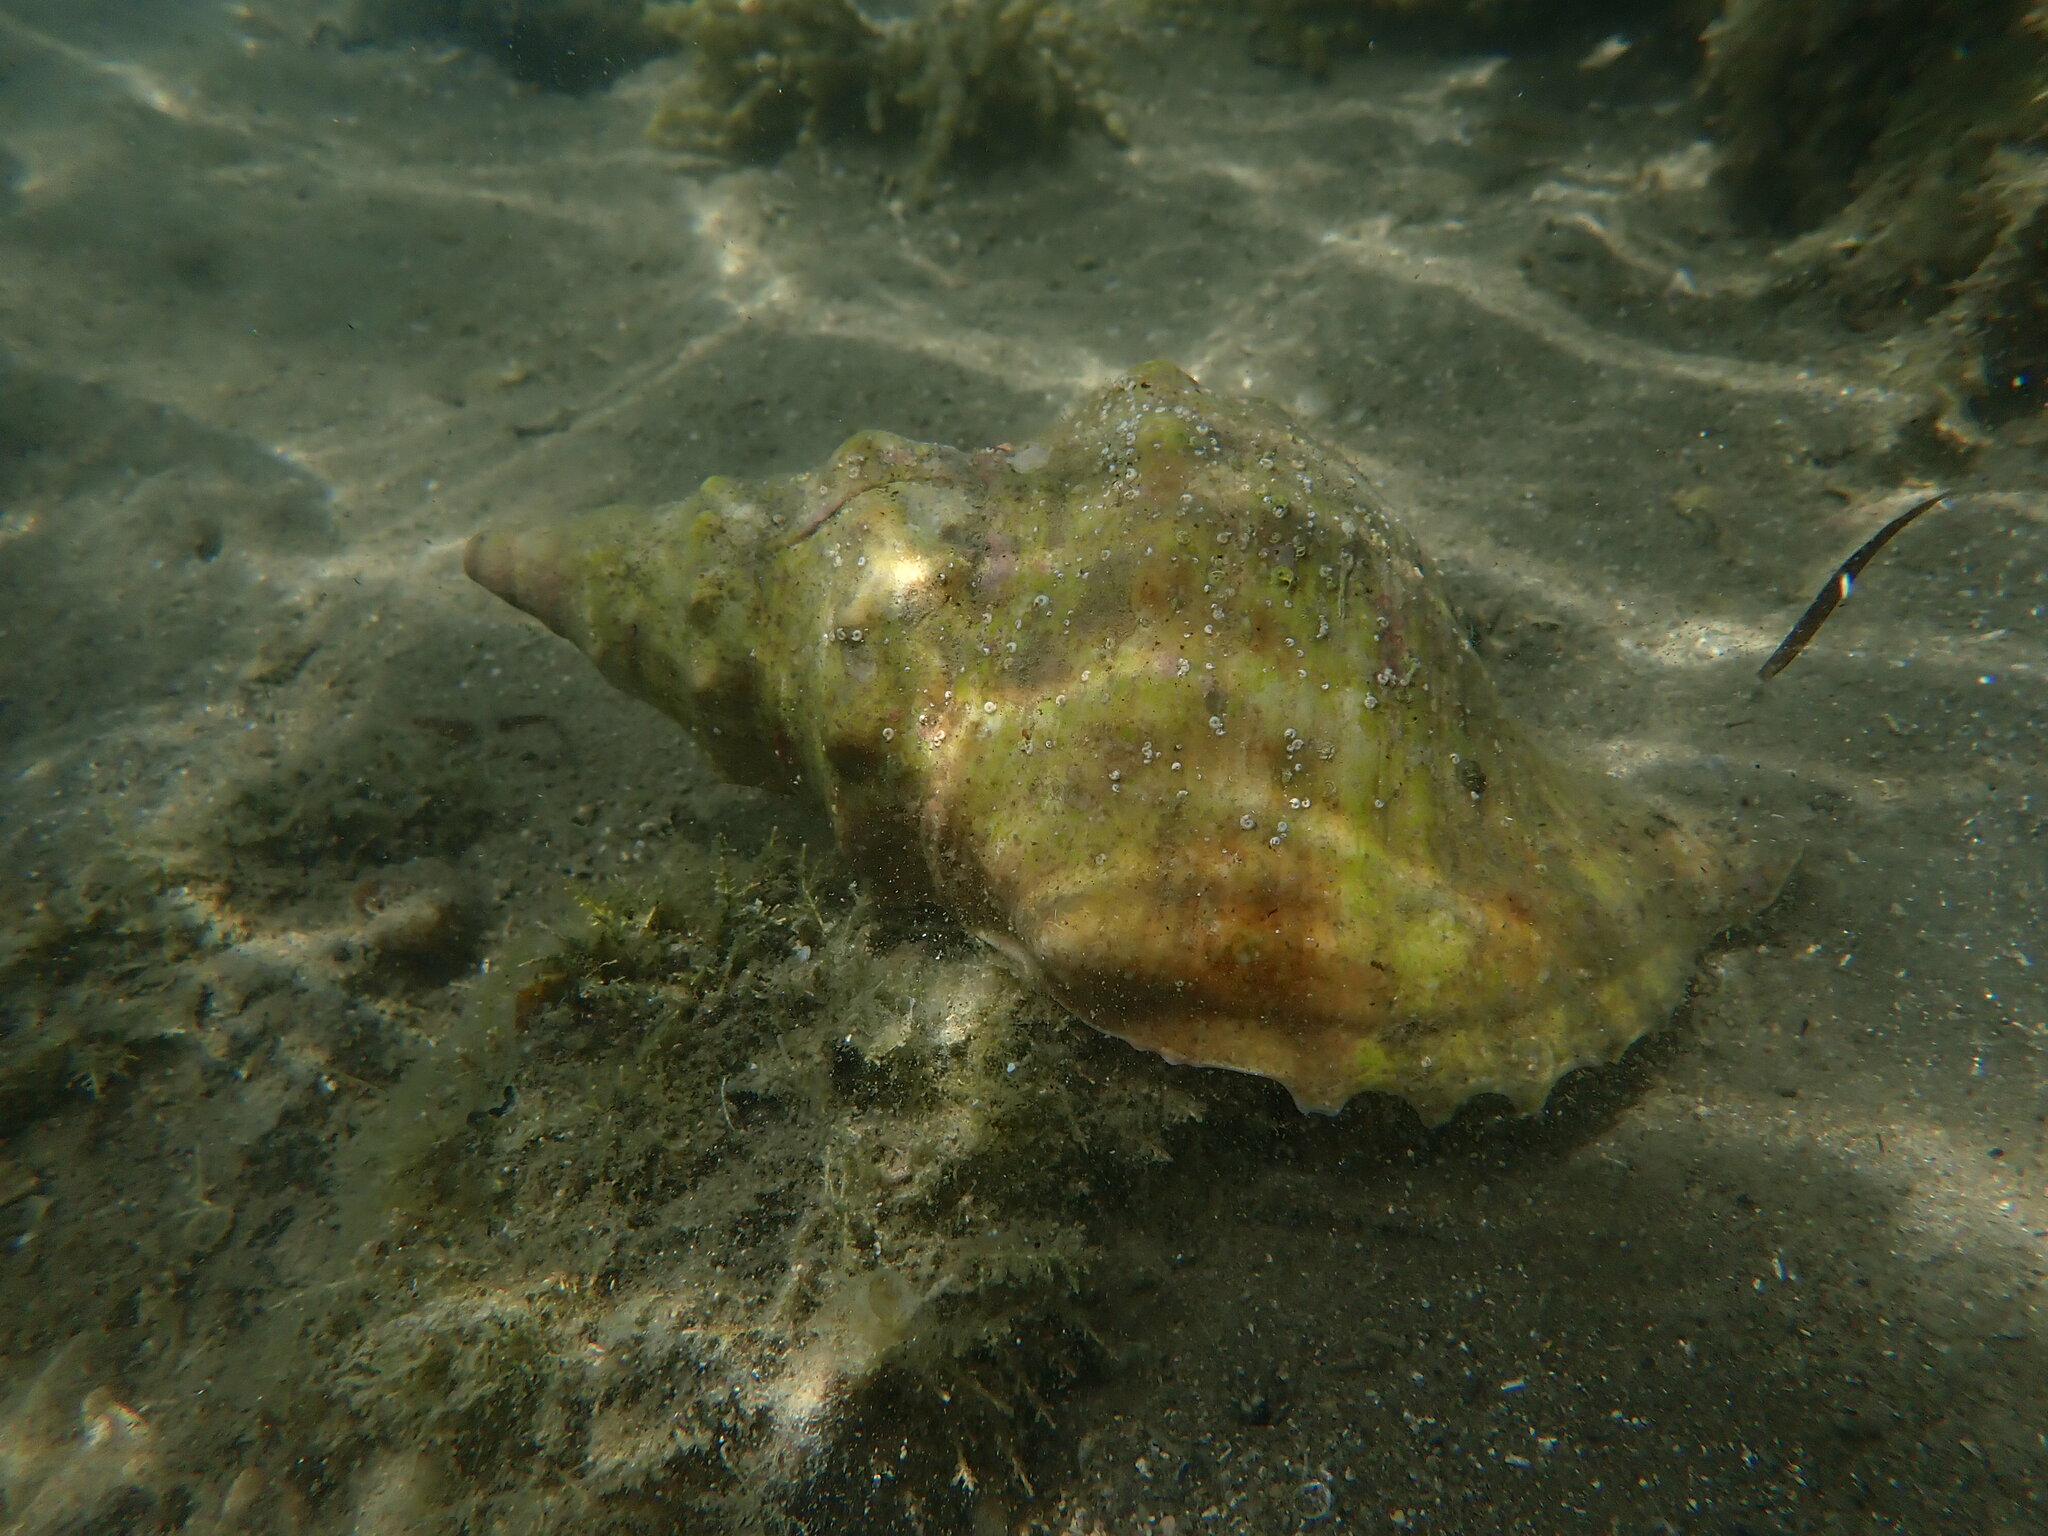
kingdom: Animalia
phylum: Mollusca
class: Gastropoda
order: Littorinimorpha
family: Charoniidae
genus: Charonia
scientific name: Charonia lampas
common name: Knobbed triton
